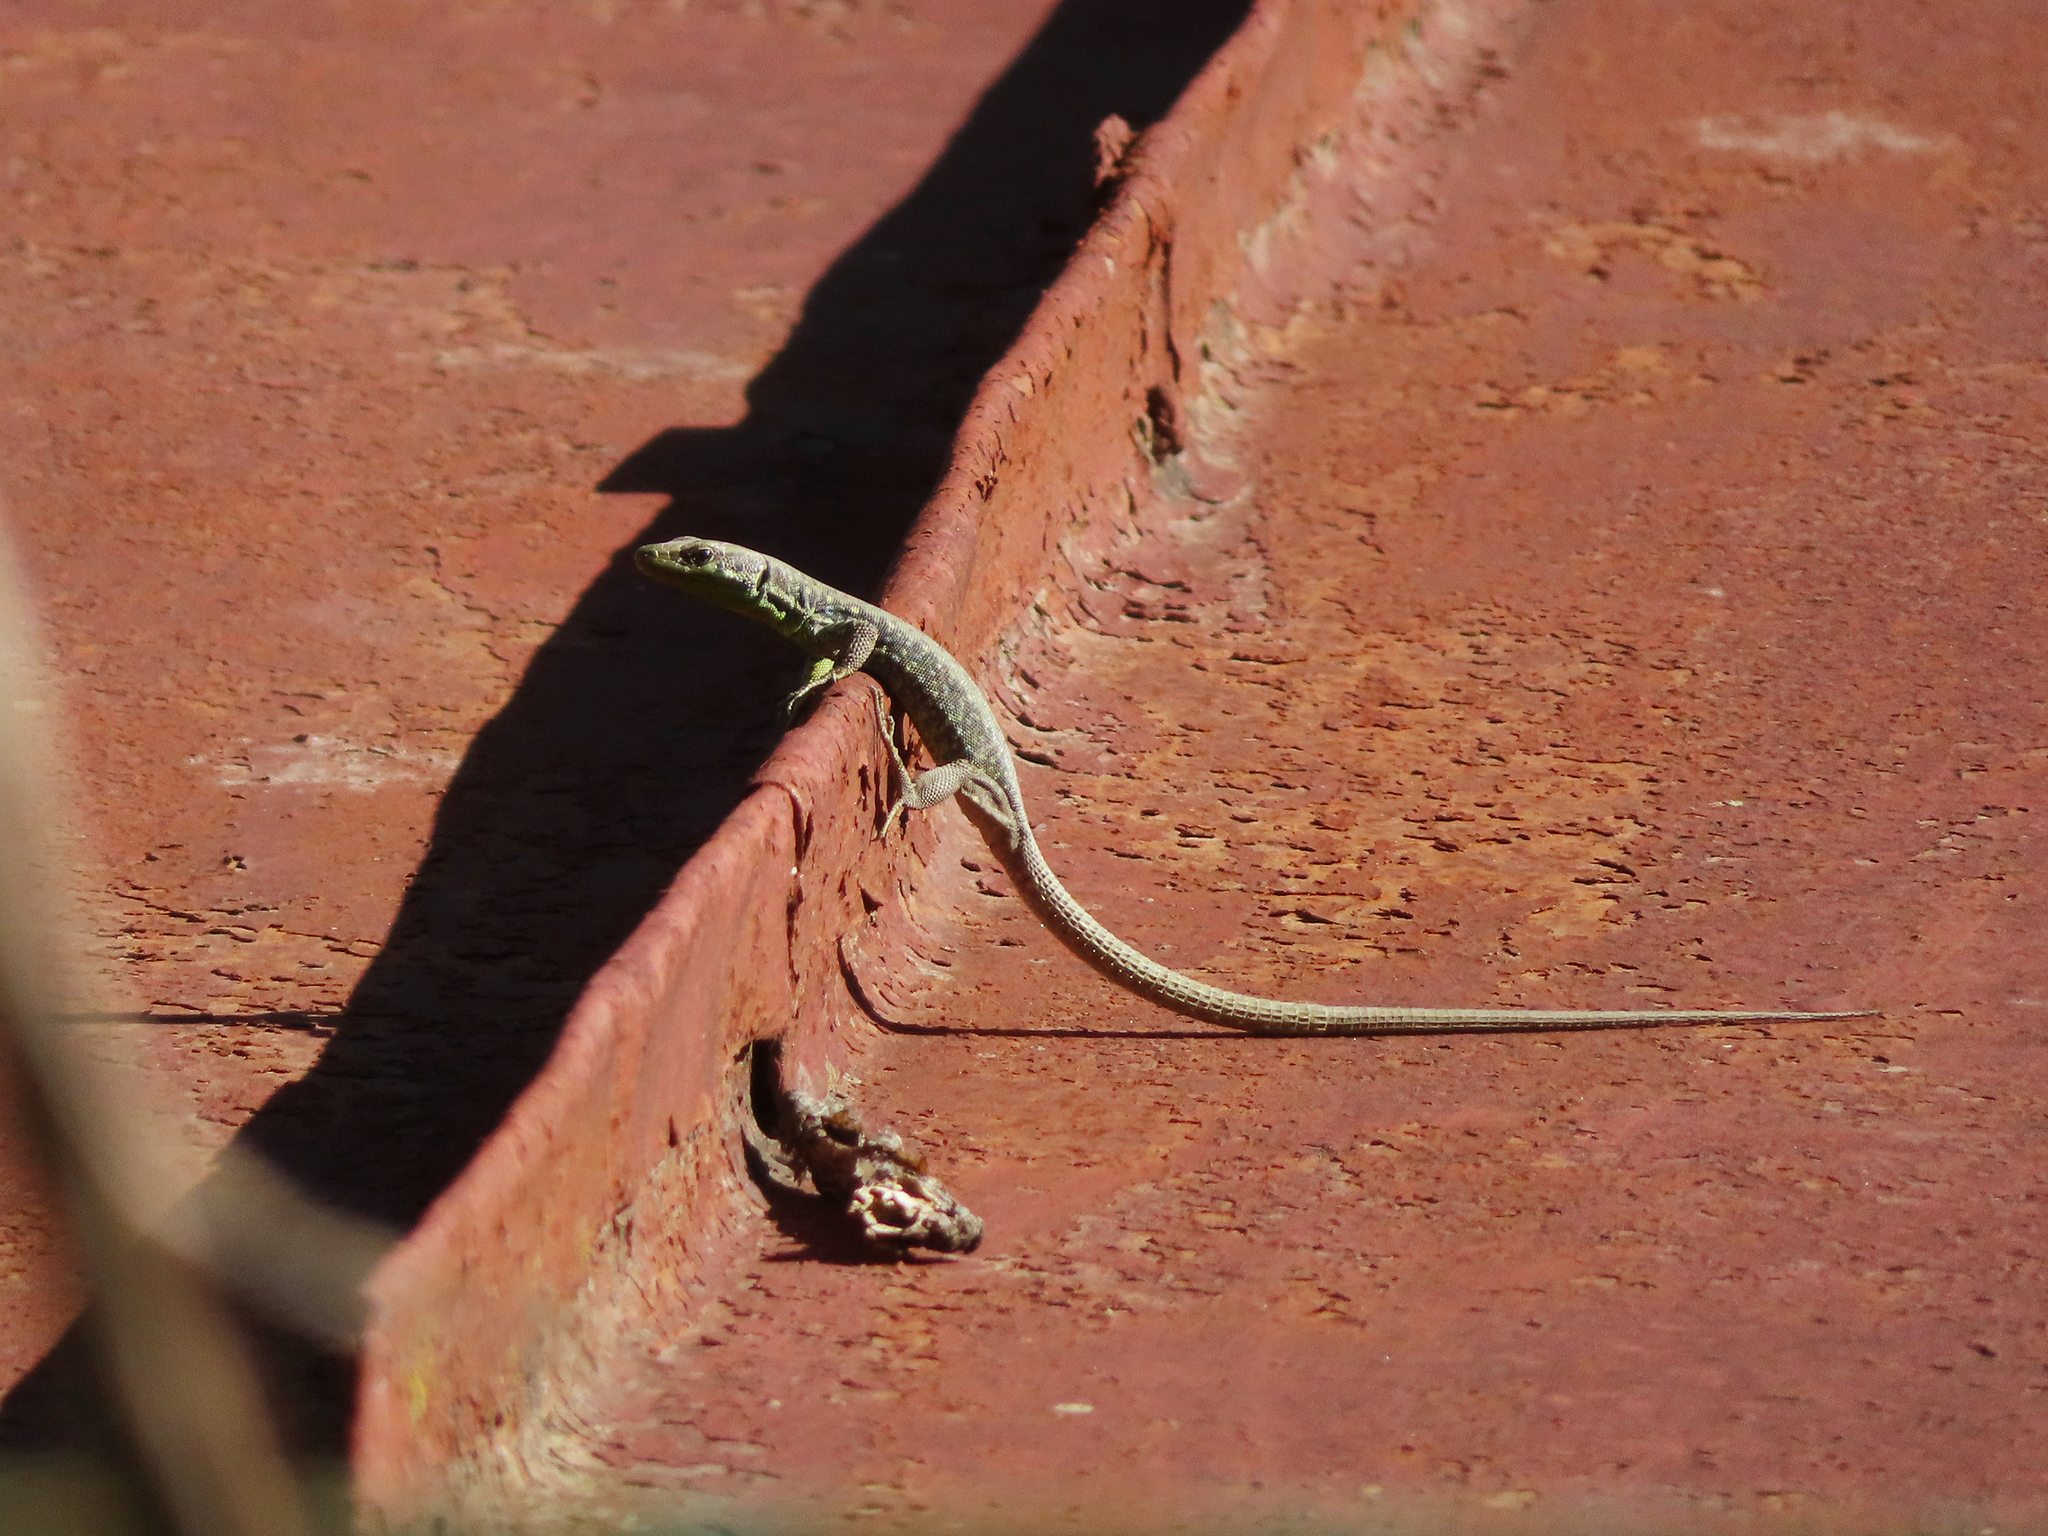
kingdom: Animalia
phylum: Chordata
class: Squamata
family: Lacertidae
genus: Darevskia
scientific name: Darevskia raddei
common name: Radde's lizard
